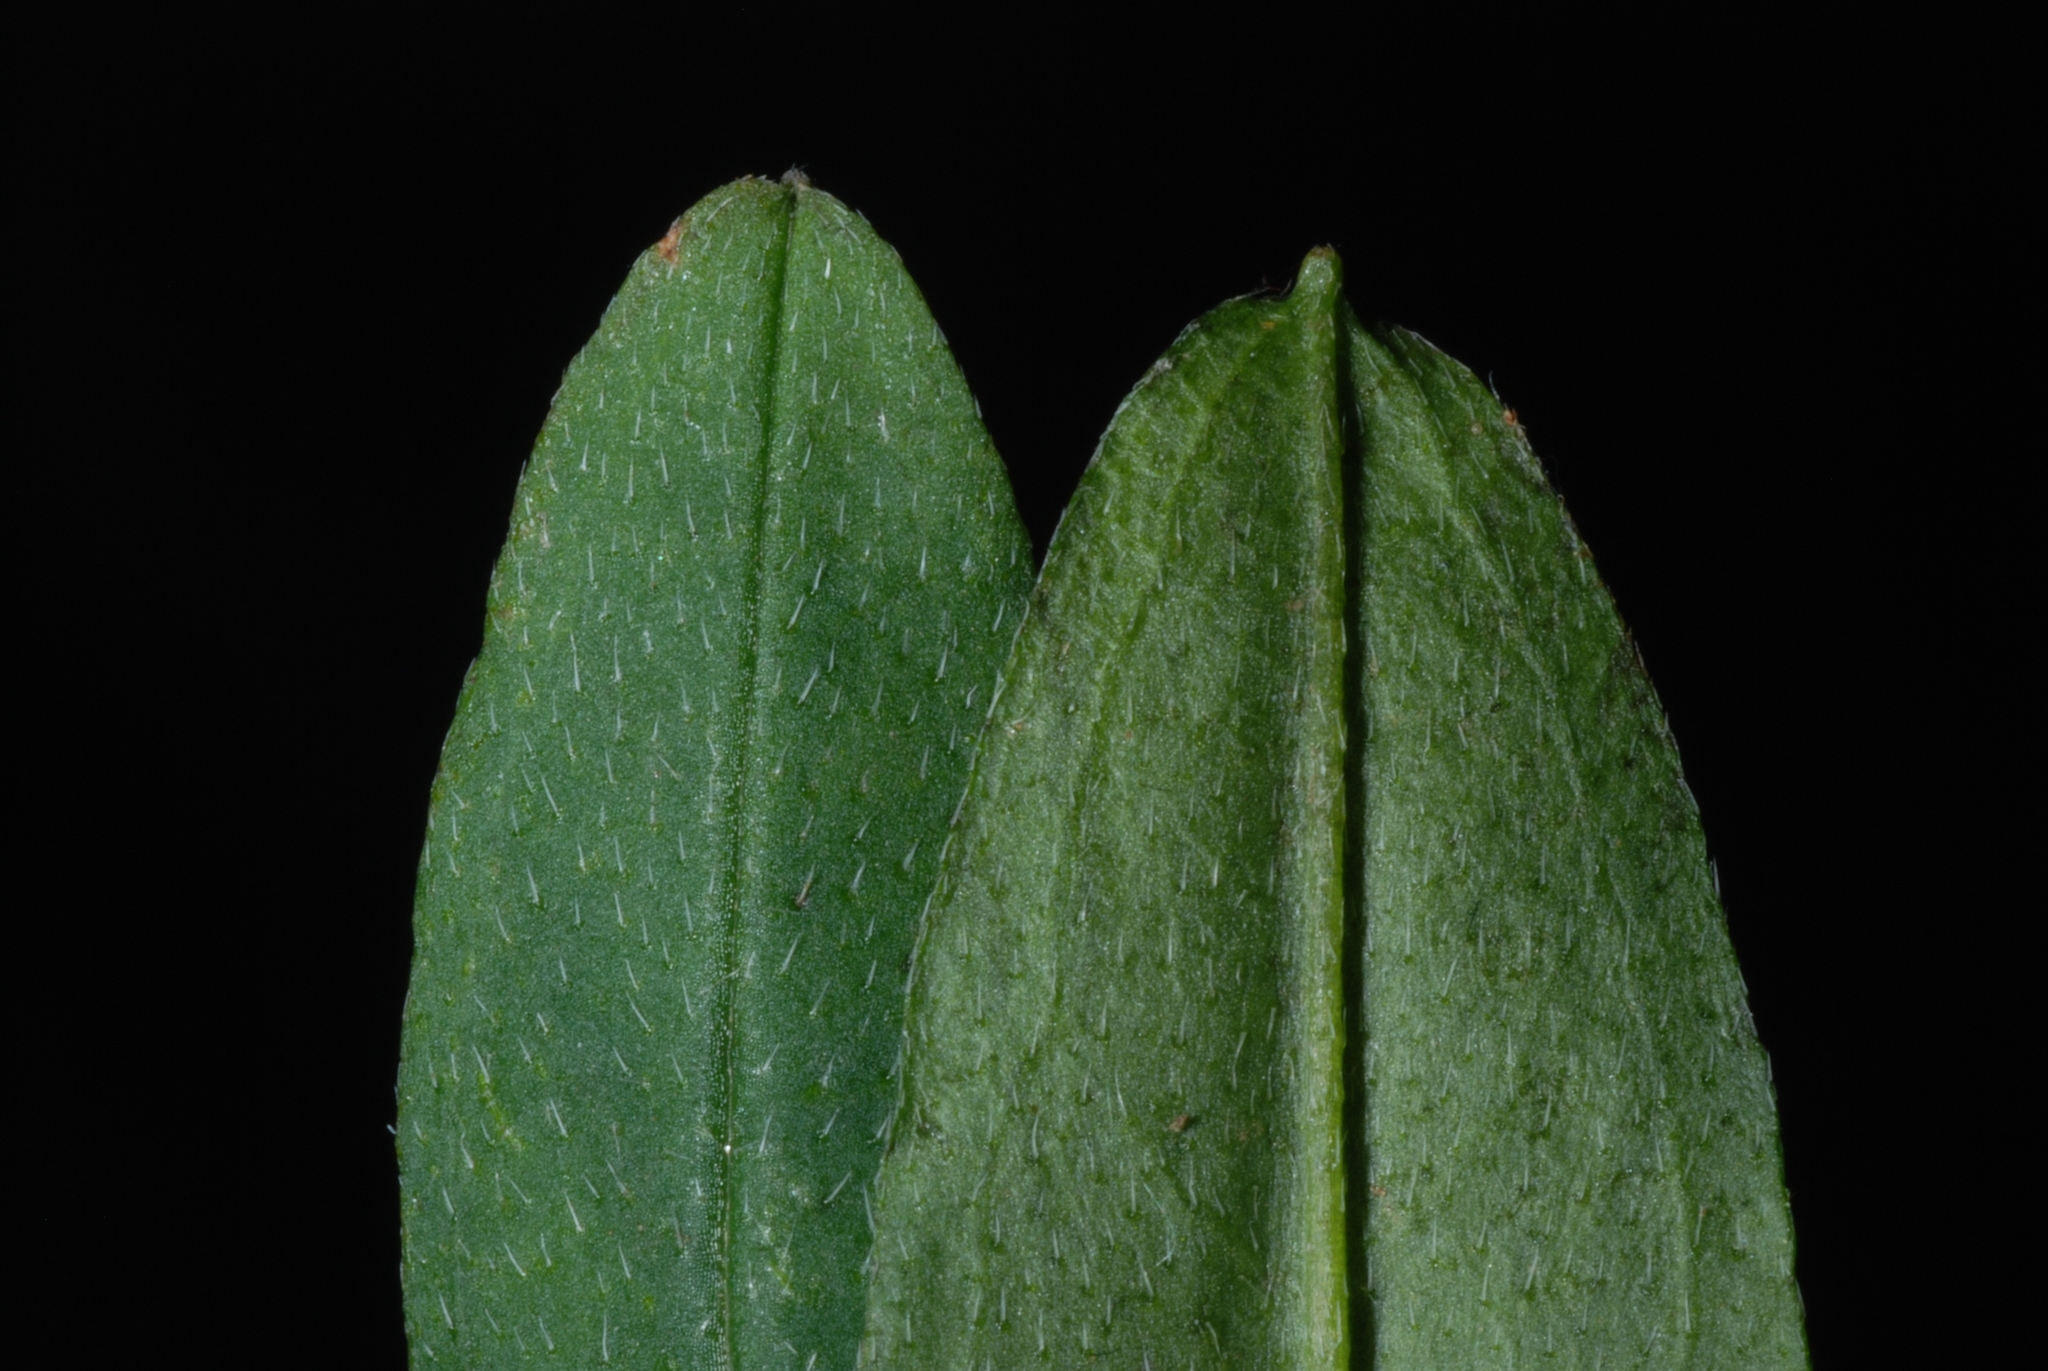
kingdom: Plantae
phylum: Tracheophyta
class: Magnoliopsida
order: Boraginales
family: Boraginaceae
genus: Myosotis
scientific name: Myosotis scorpioides
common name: Water forget-me-not
